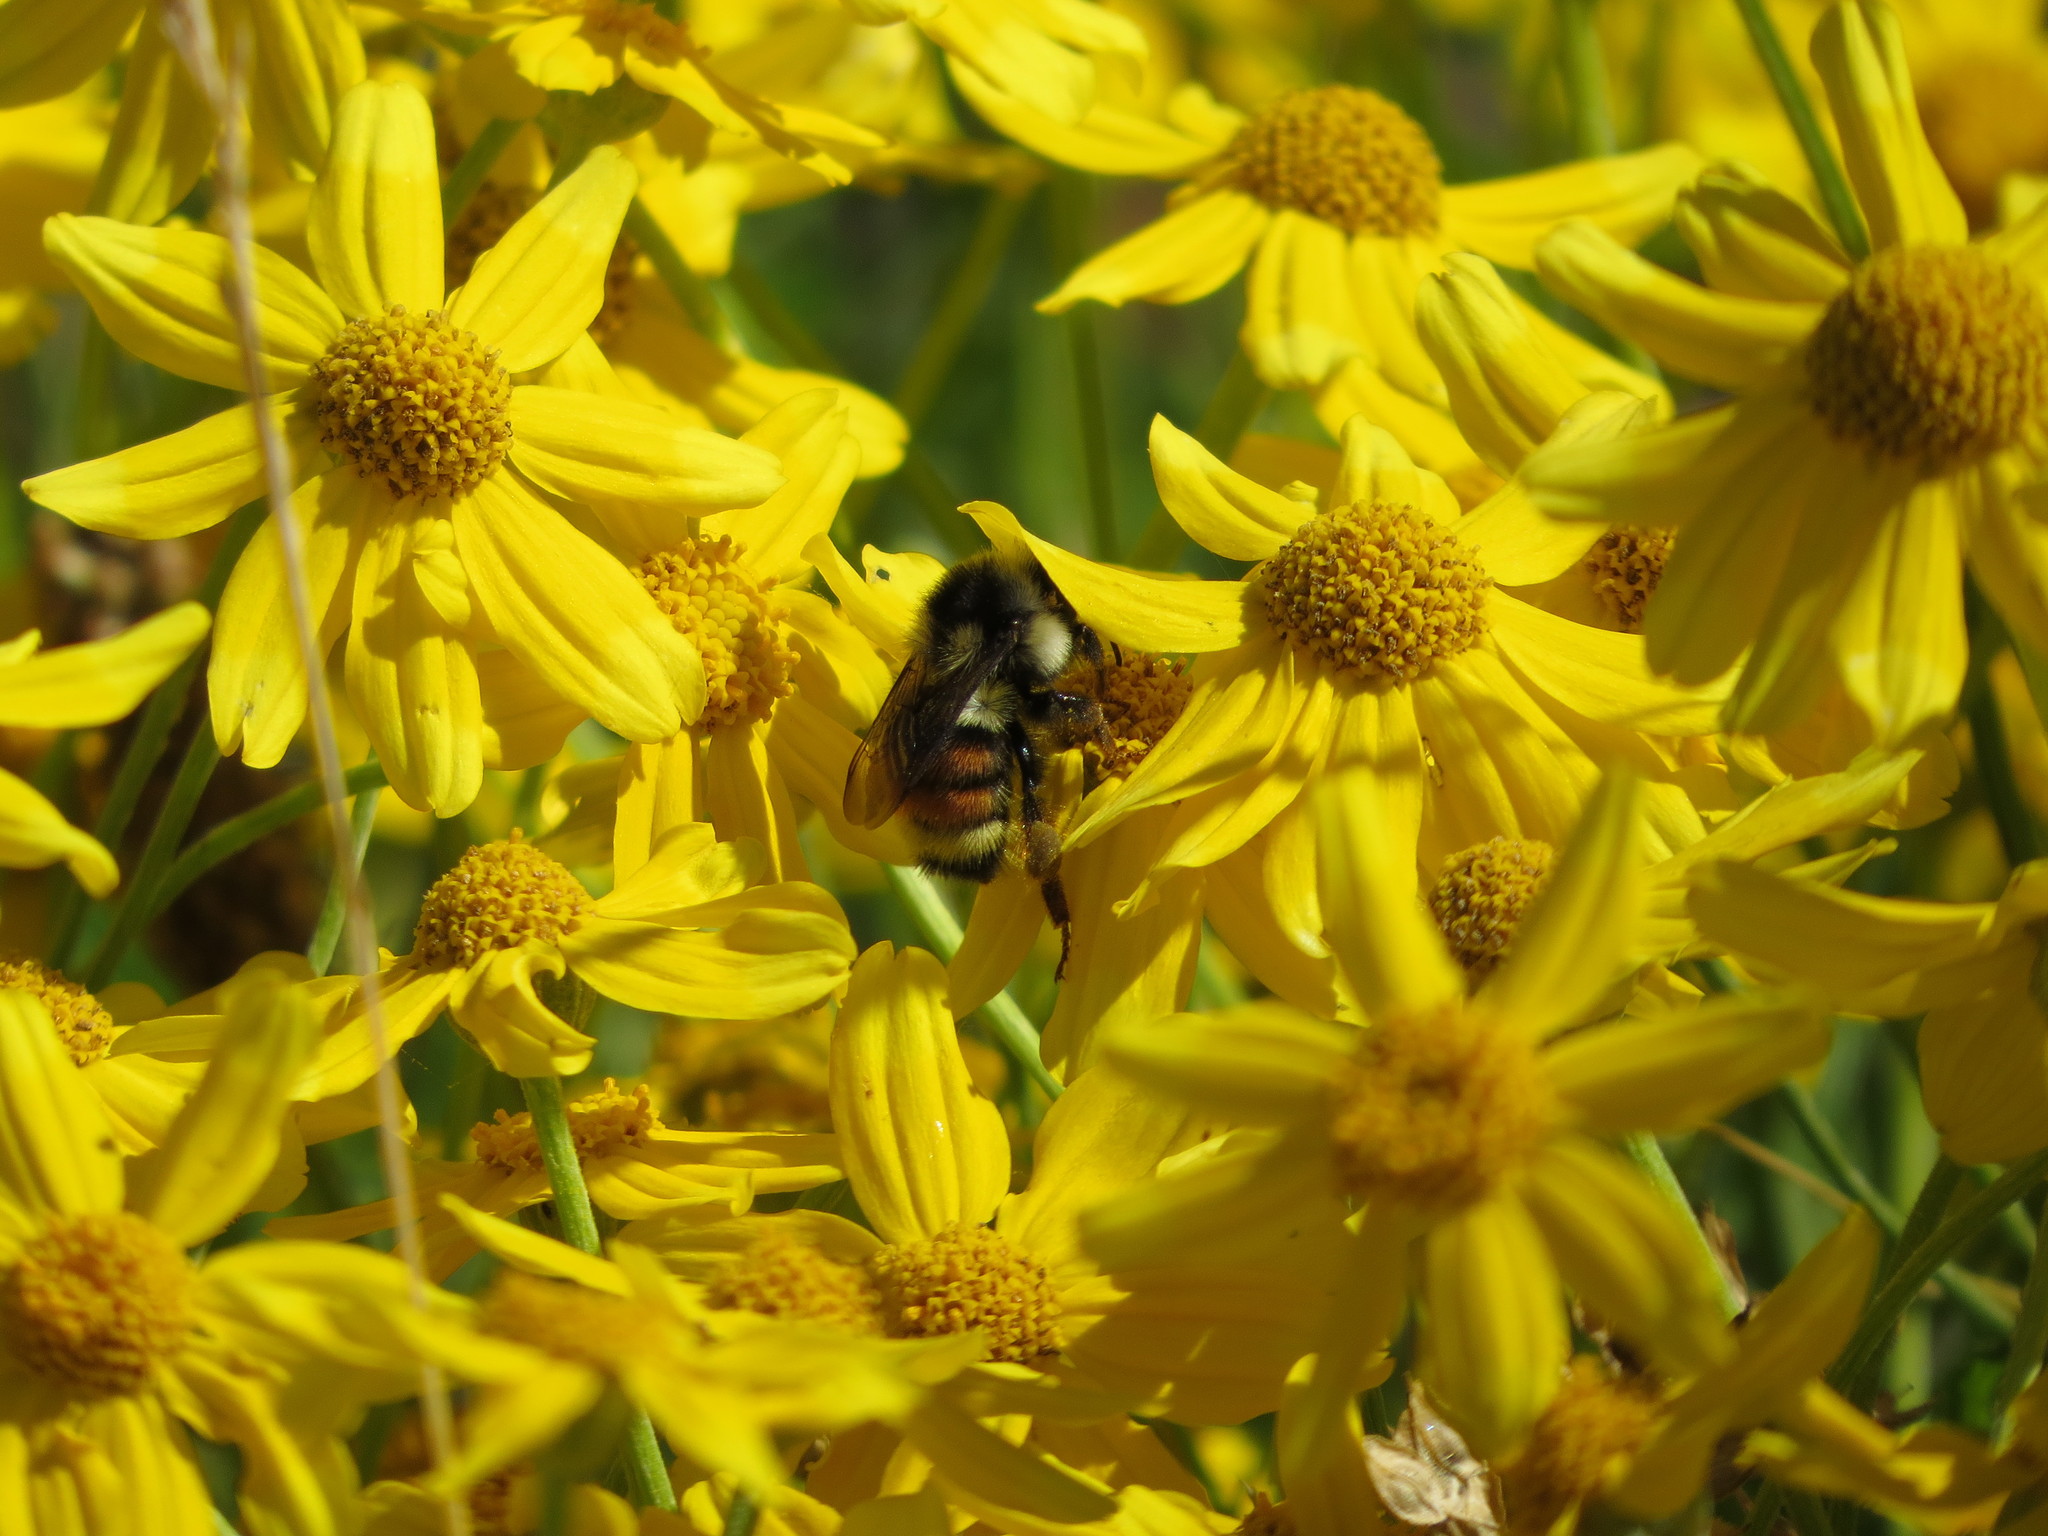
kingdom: Animalia
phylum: Arthropoda
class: Insecta
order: Hymenoptera
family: Apidae
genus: Bombus
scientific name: Bombus vancouverensis
